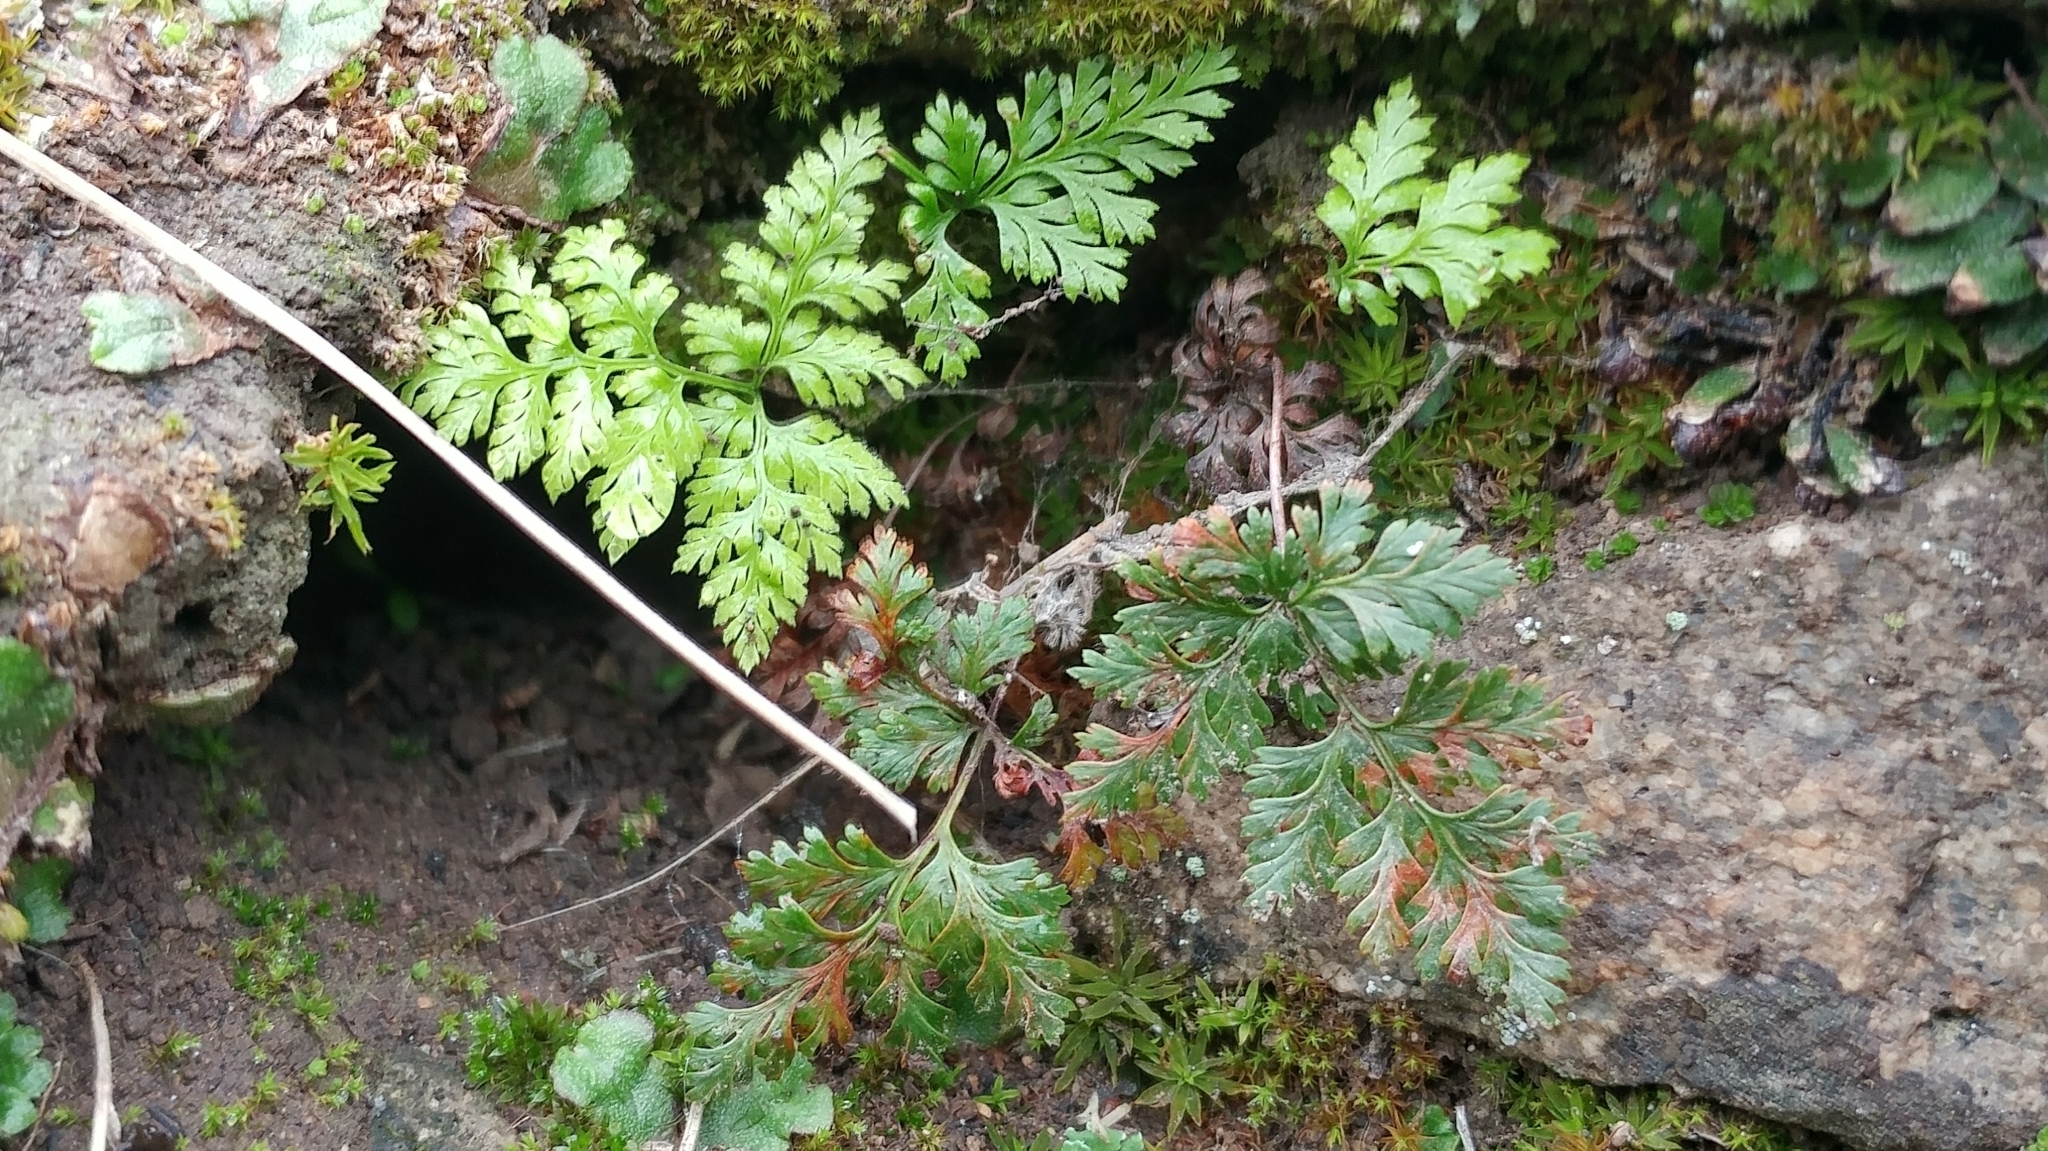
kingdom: Plantae
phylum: Tracheophyta
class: Polypodiopsida
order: Polypodiales
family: Pteridaceae
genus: Aspidotis
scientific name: Aspidotis californica
